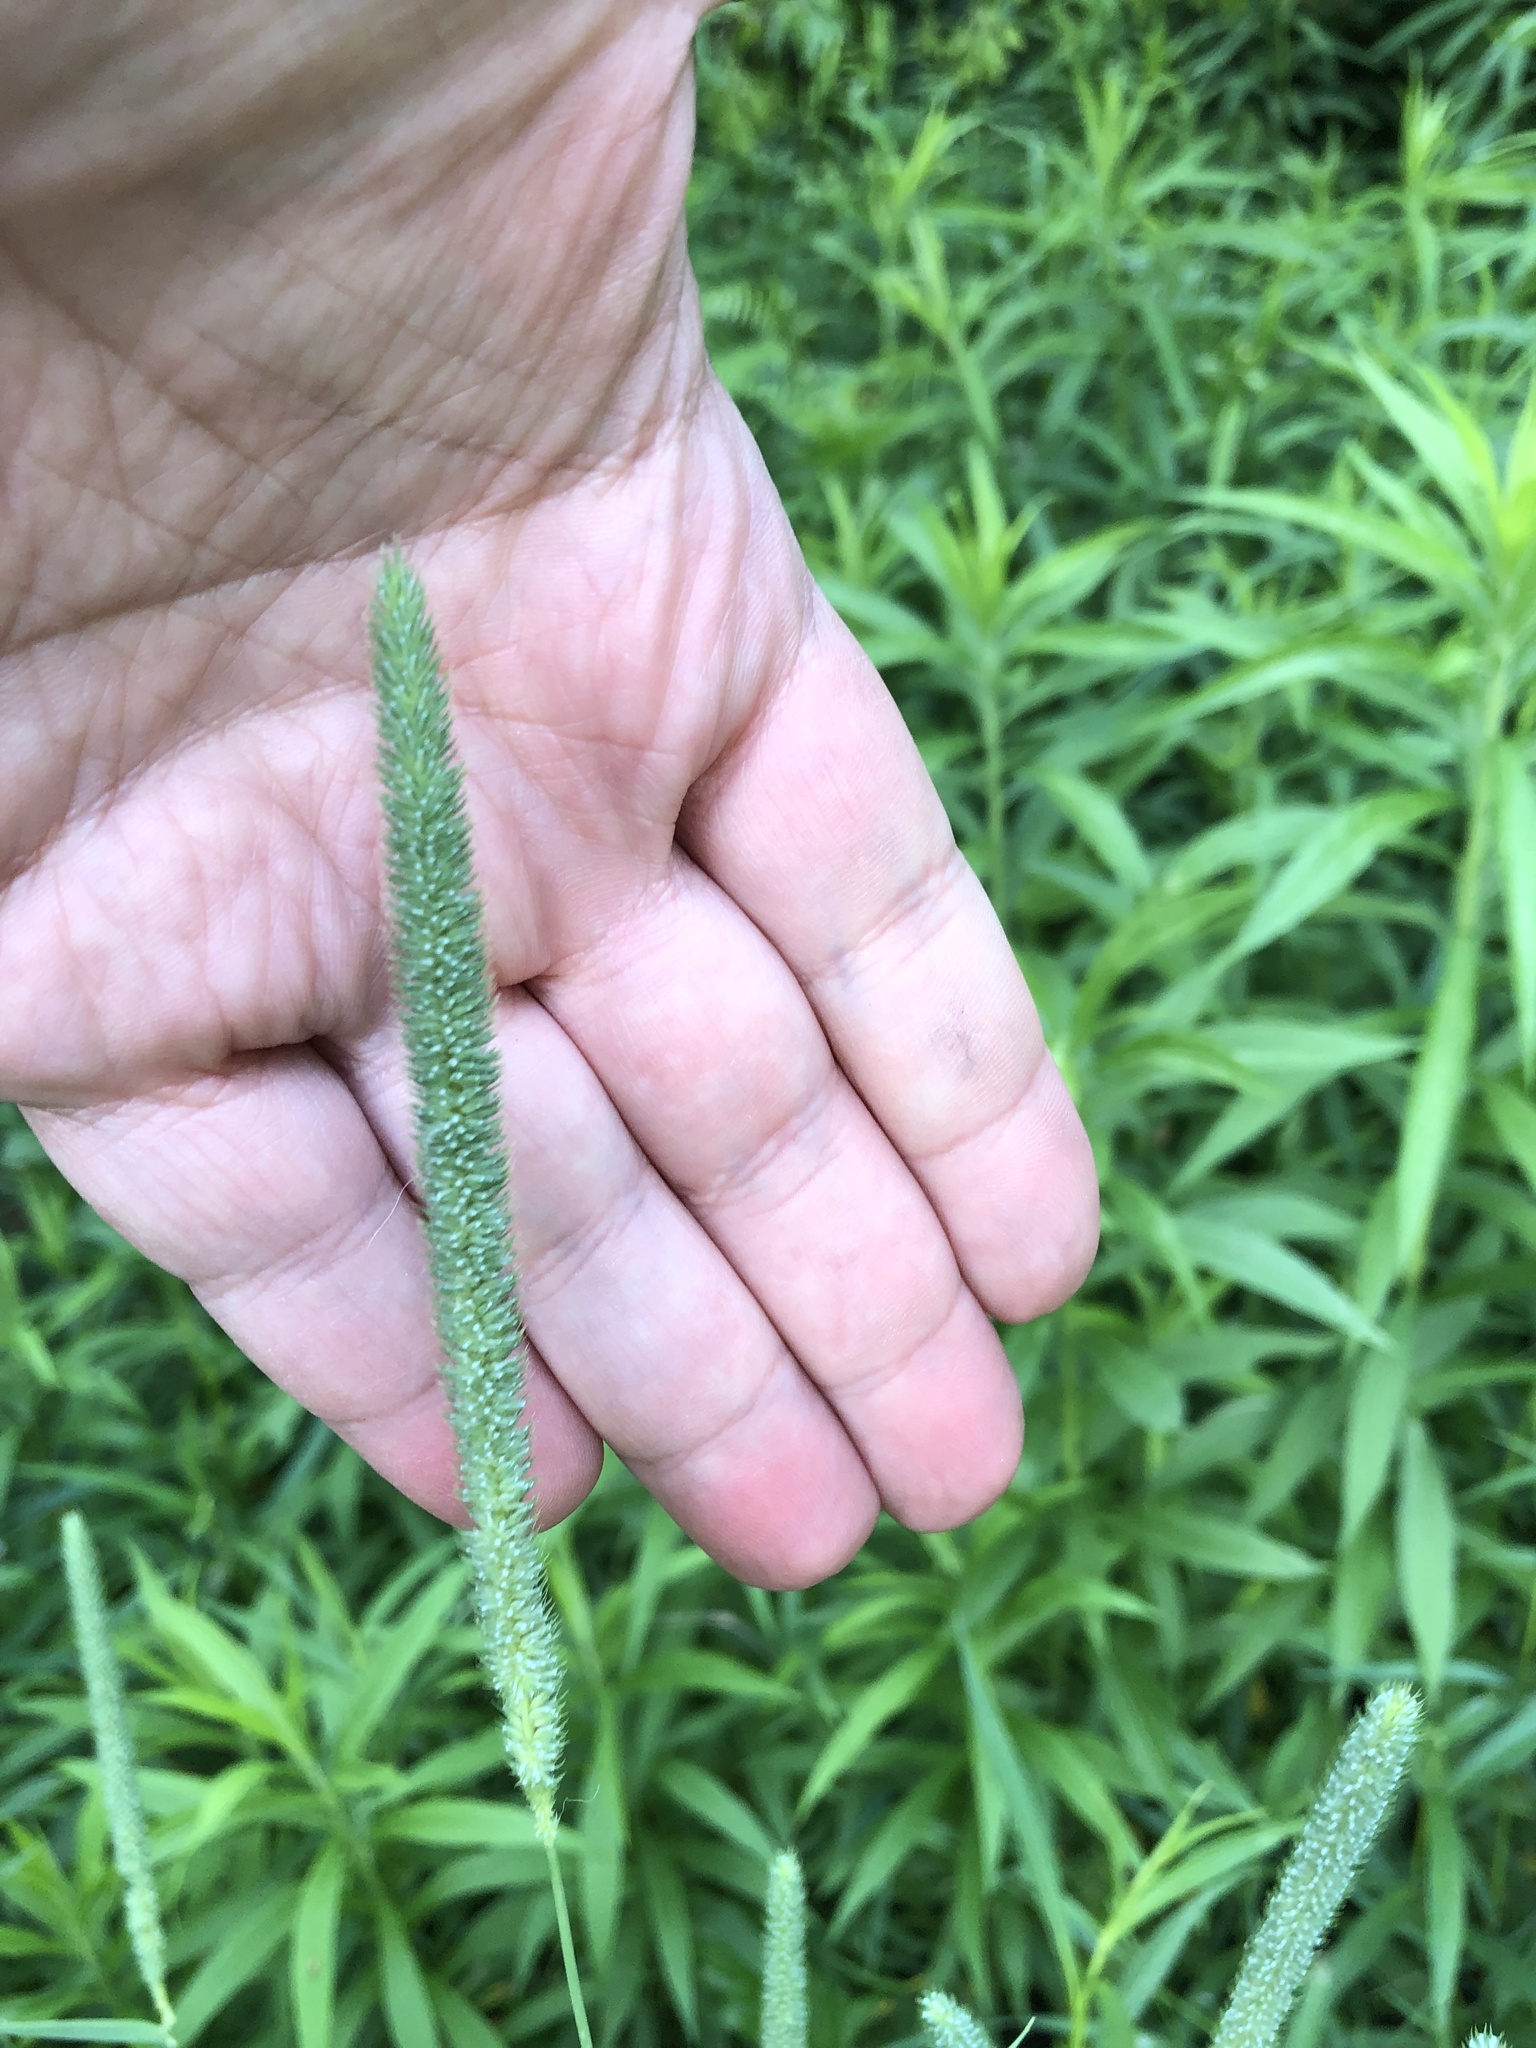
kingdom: Plantae
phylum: Tracheophyta
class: Liliopsida
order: Poales
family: Poaceae
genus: Phleum
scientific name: Phleum pratense
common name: Timothy grass
